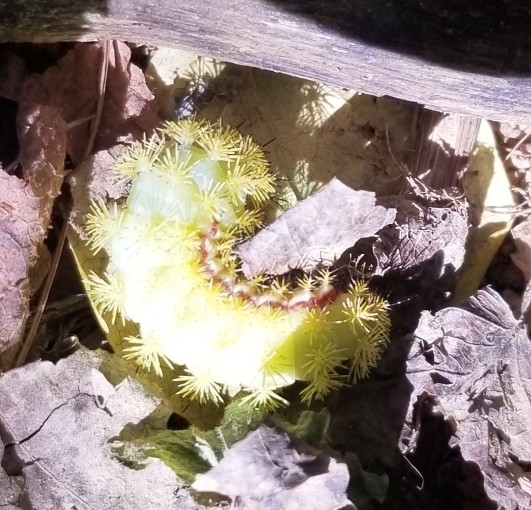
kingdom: Animalia
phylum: Arthropoda
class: Insecta
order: Lepidoptera
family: Saturniidae
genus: Automeris
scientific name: Automeris io
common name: Io moth
